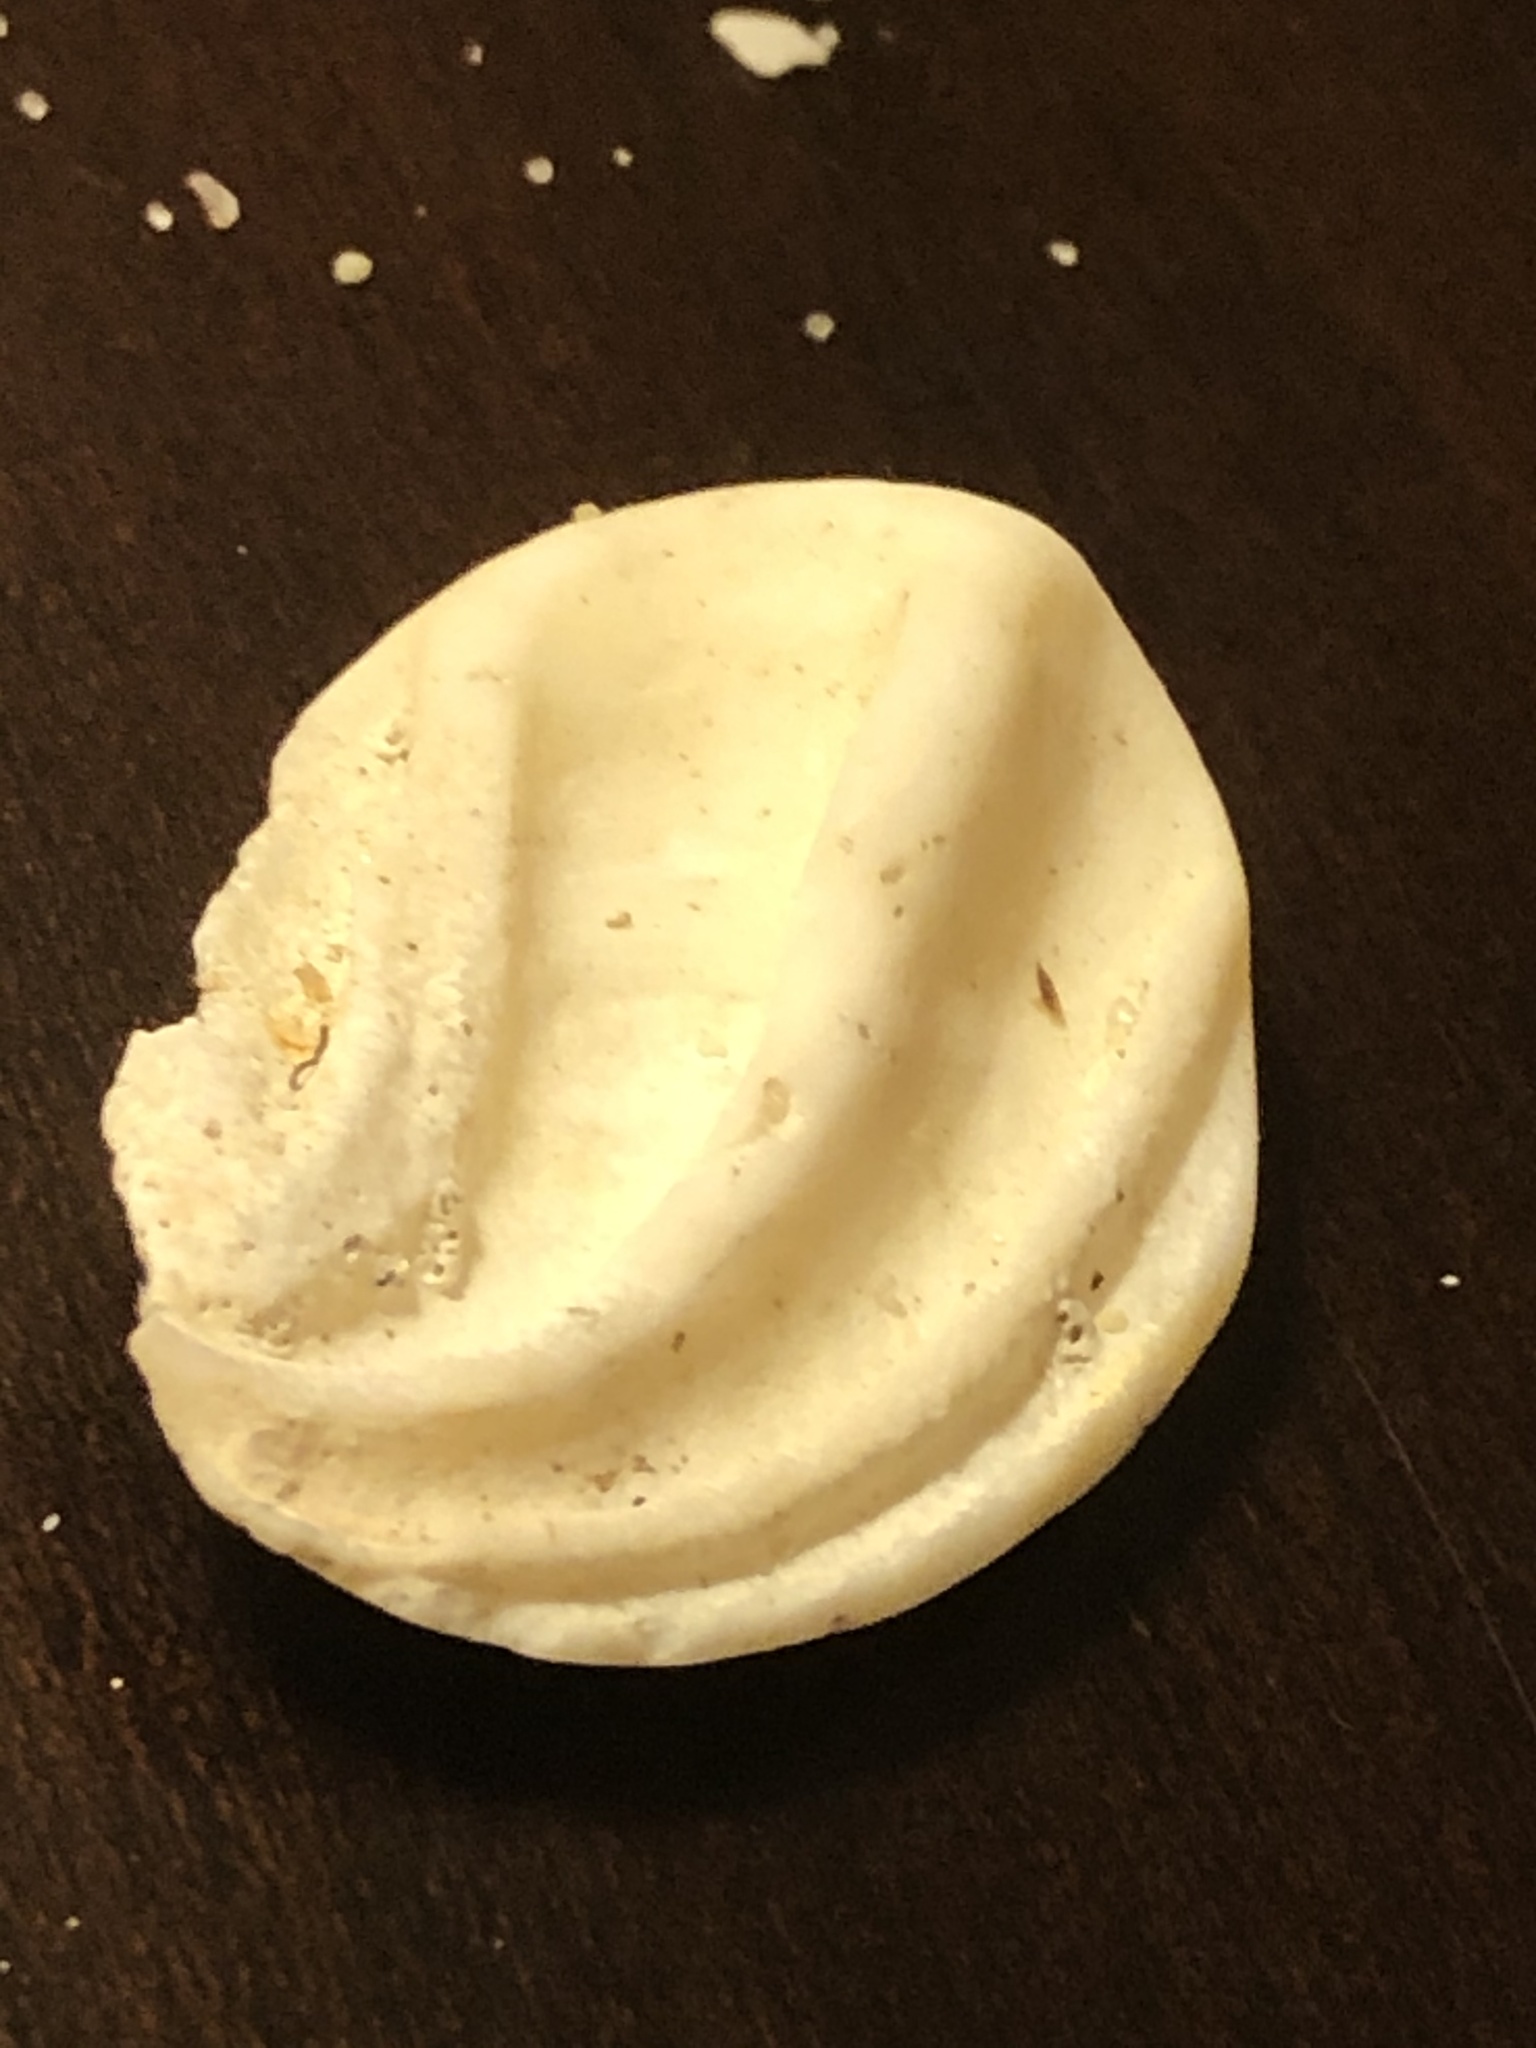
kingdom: Animalia
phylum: Mollusca
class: Gastropoda
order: Trochida
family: Turbinidae
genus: Megastraea
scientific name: Megastraea undosa
